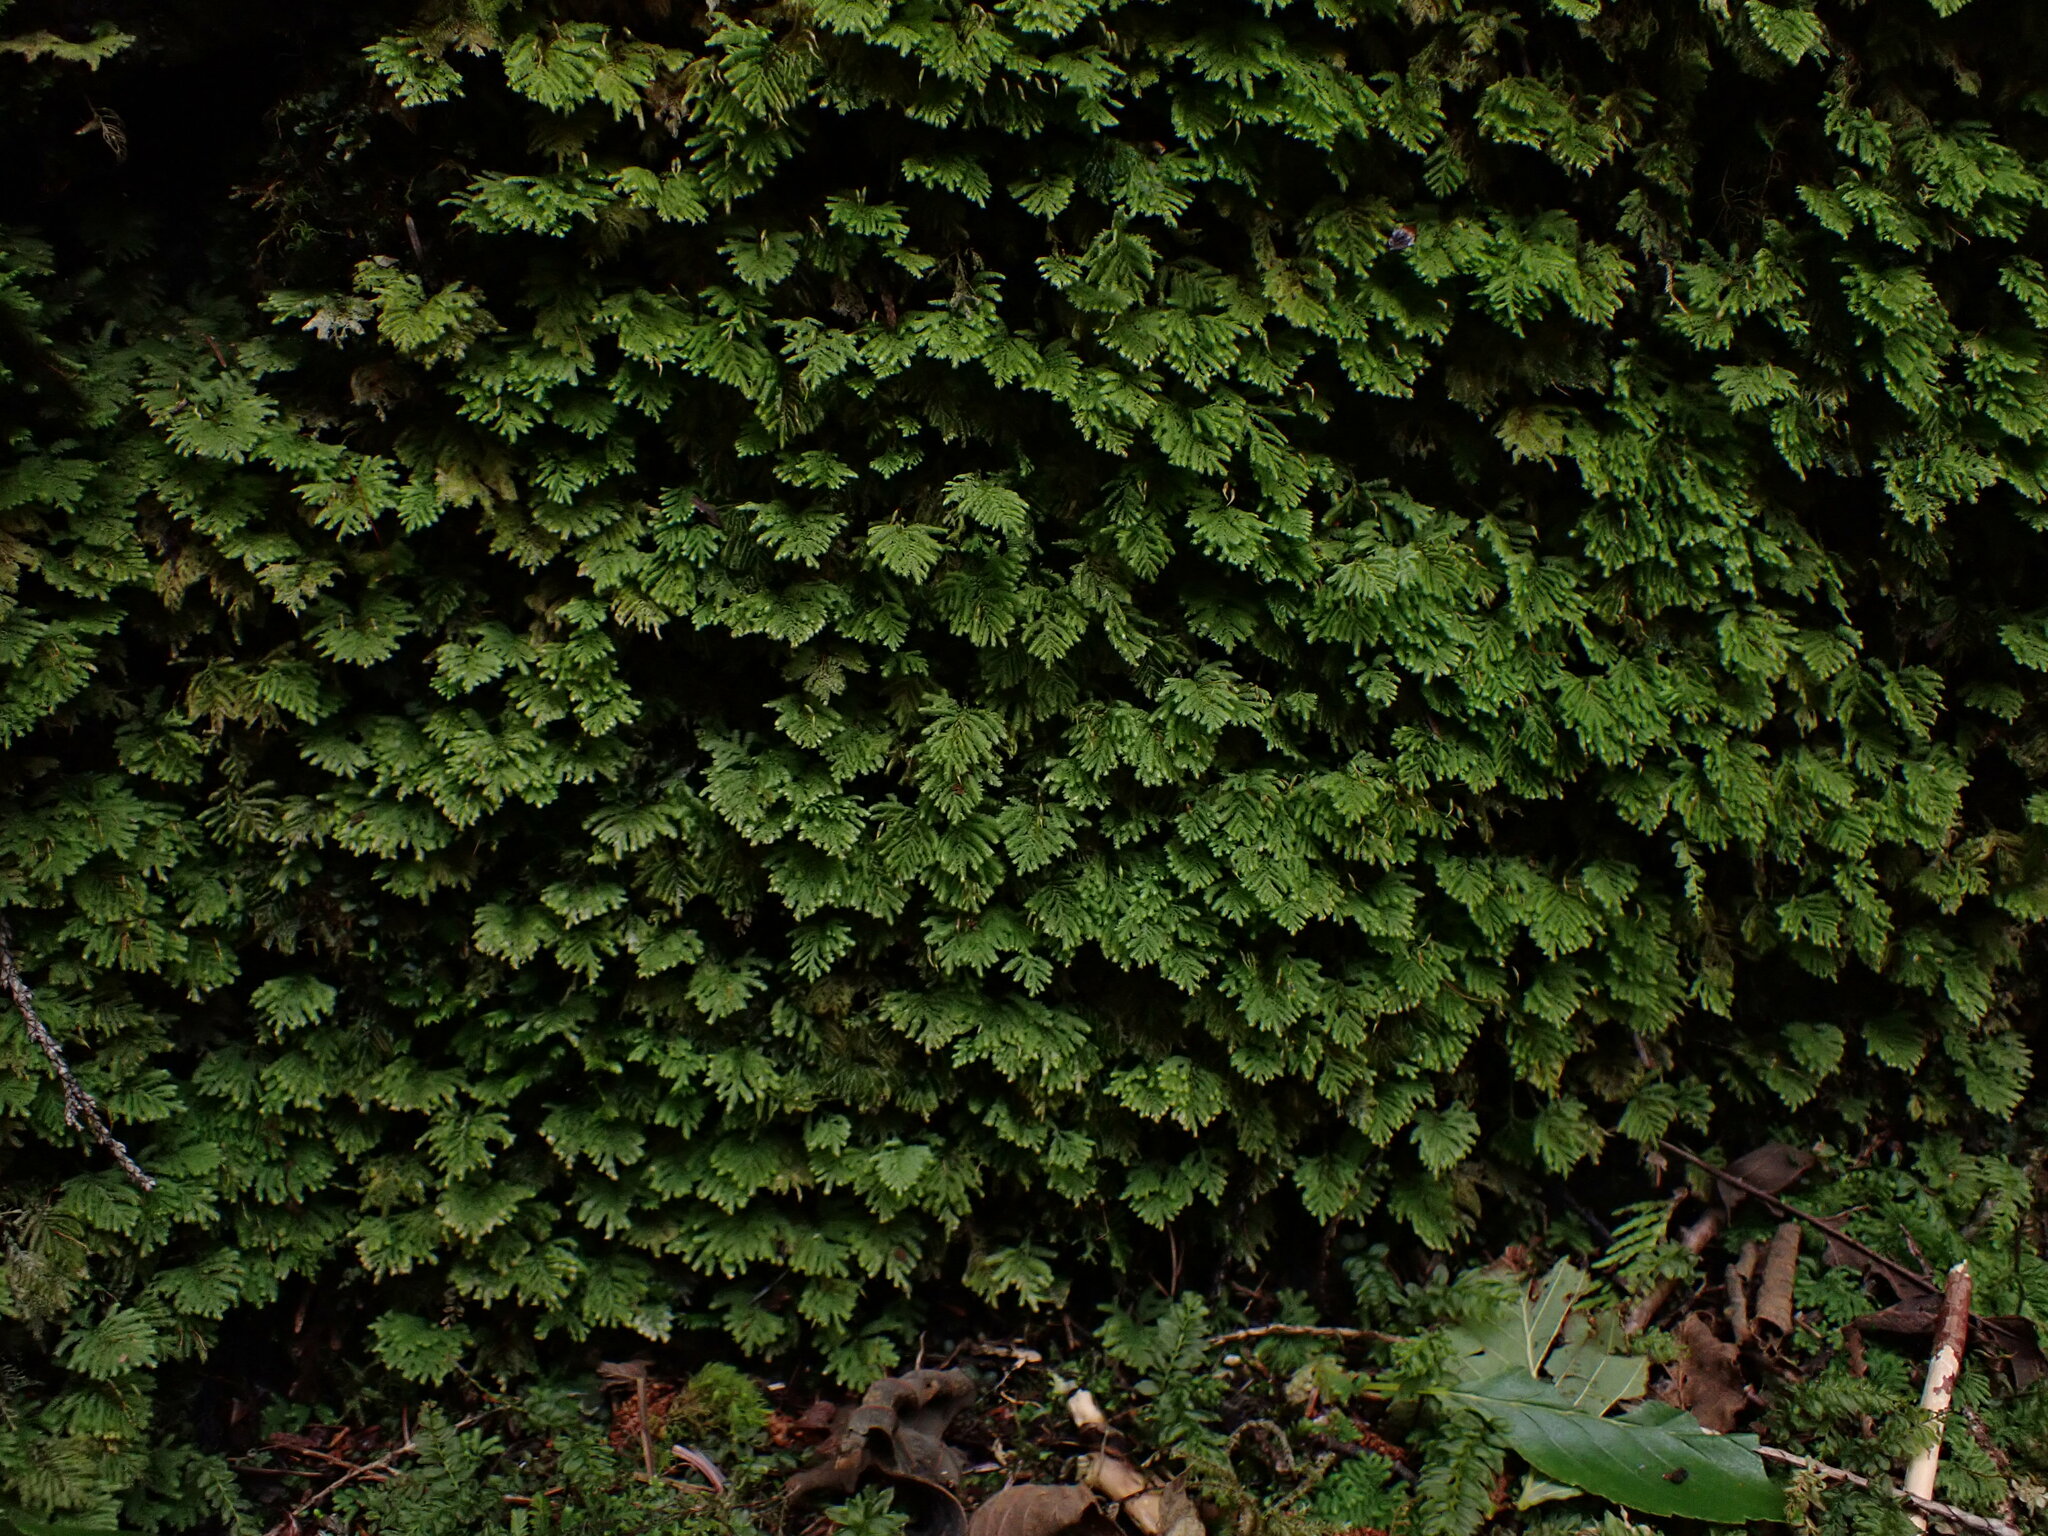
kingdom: Plantae
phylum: Bryophyta
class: Bryopsida
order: Hypopterygiales
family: Hypopterygiaceae
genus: Hypopterygium
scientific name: Hypopterygium flavolimbatum
